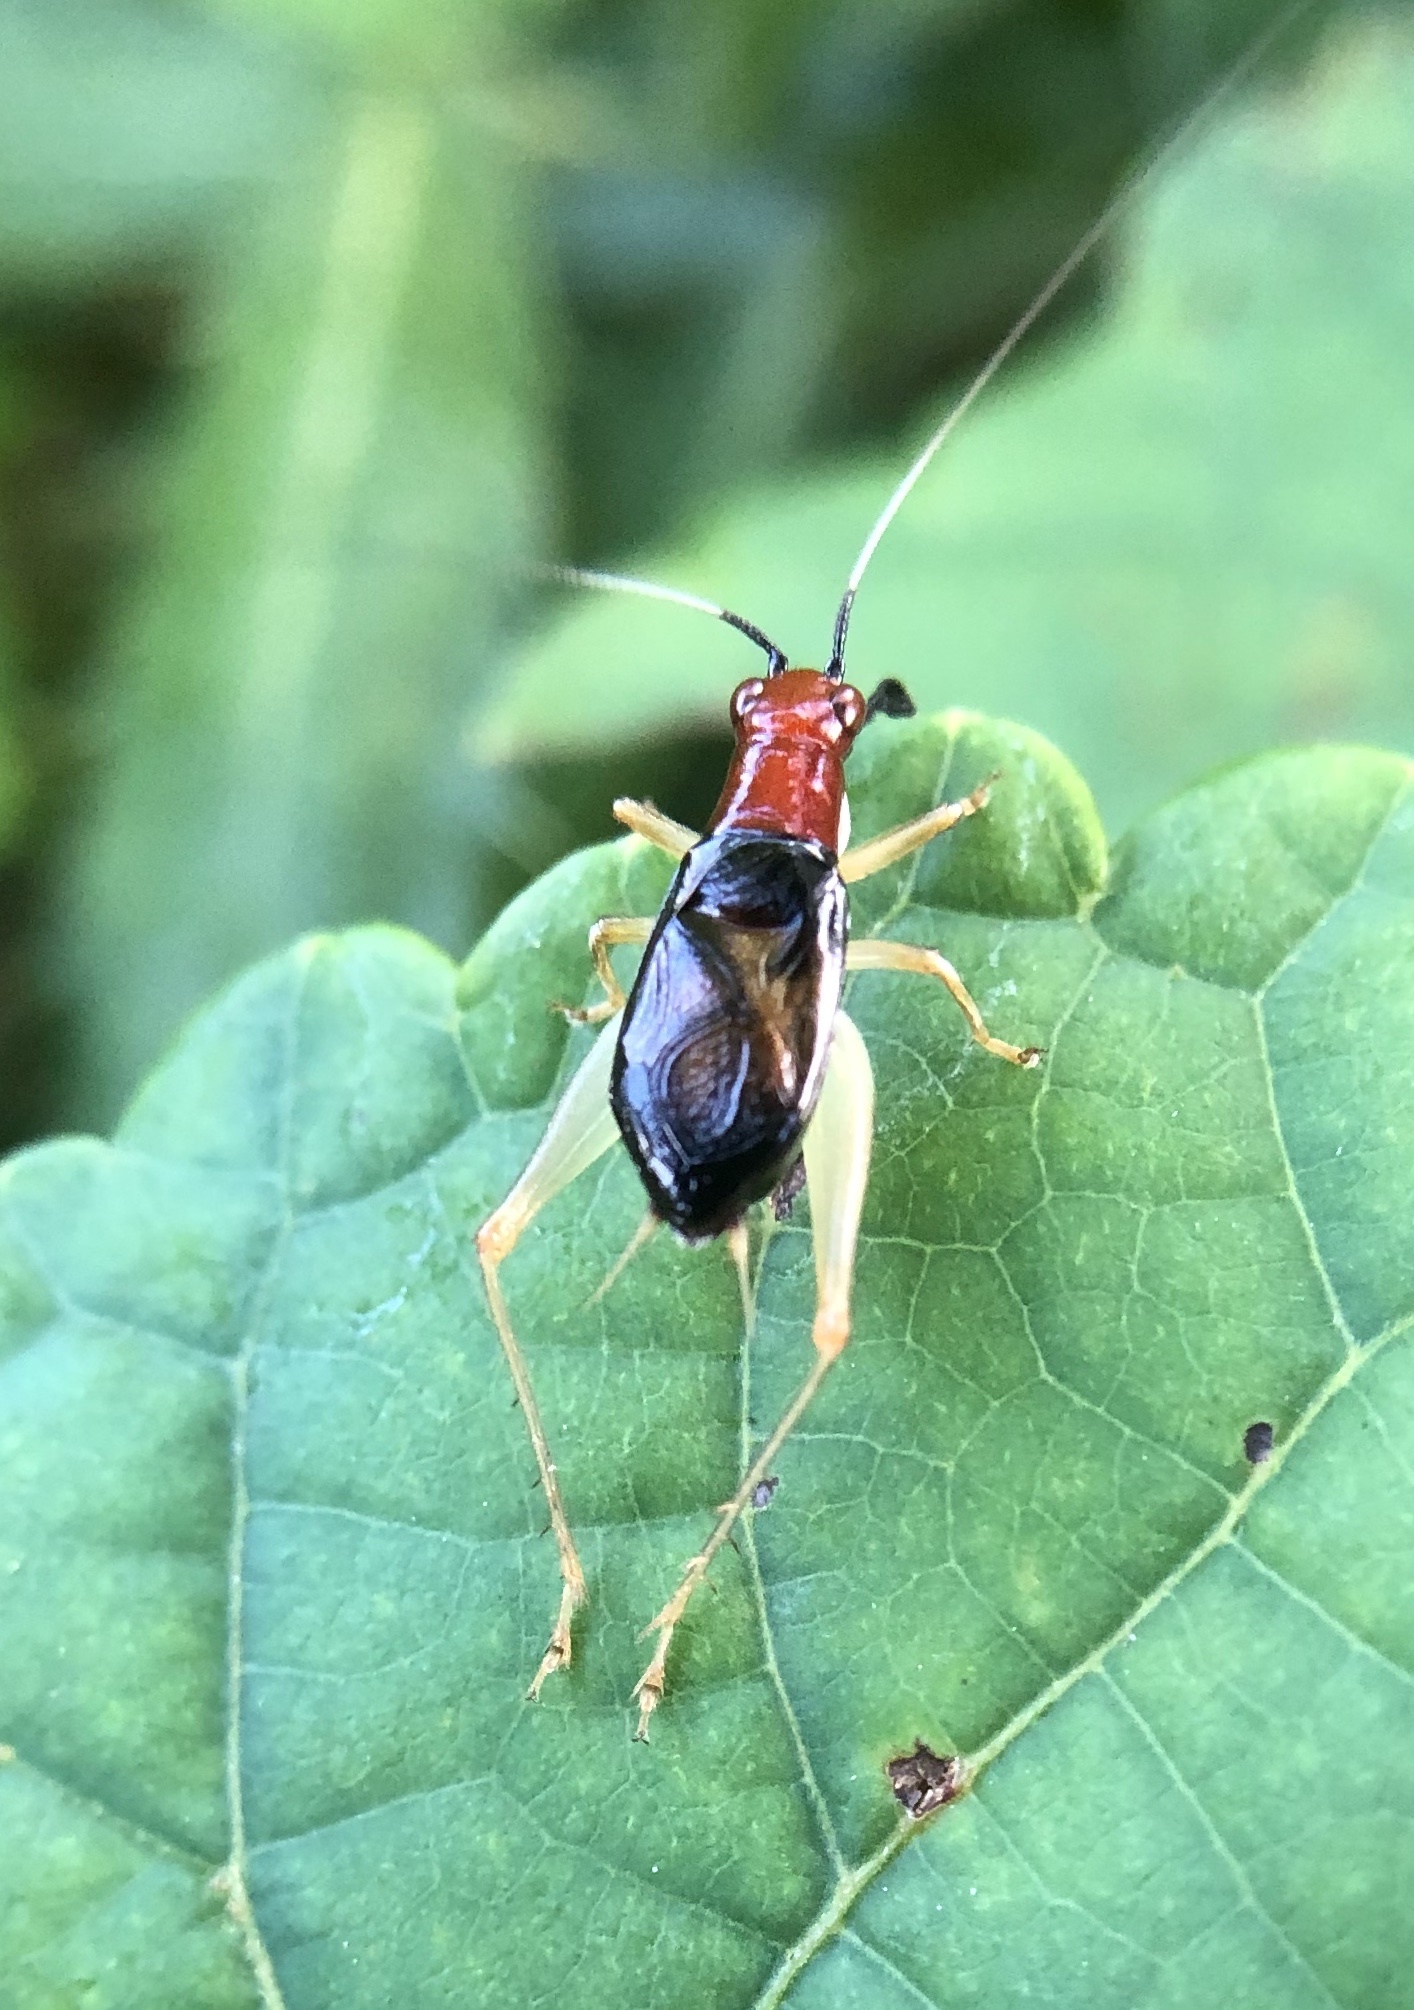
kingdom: Animalia
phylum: Arthropoda
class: Insecta
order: Orthoptera
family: Trigonidiidae
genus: Phyllopalpus
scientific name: Phyllopalpus pulchellus
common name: Handsome trig
